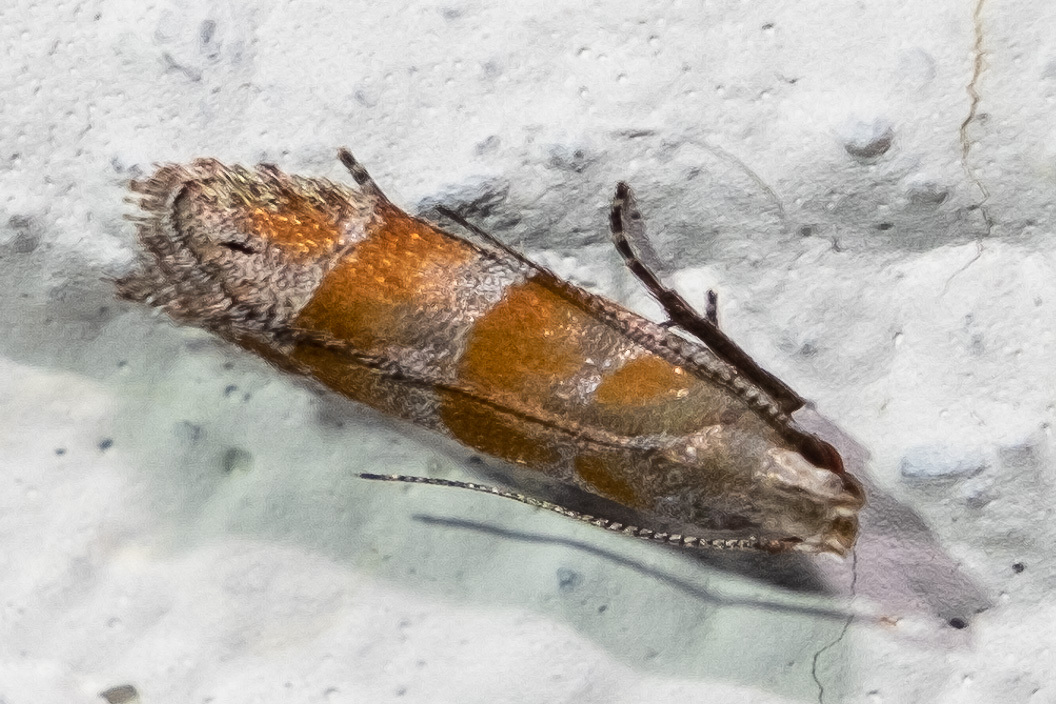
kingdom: Animalia
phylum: Arthropoda
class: Insecta
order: Lepidoptera
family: Gelechiidae
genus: Battaristis
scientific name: Battaristis vittella
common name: Orange stripe-backed moth
